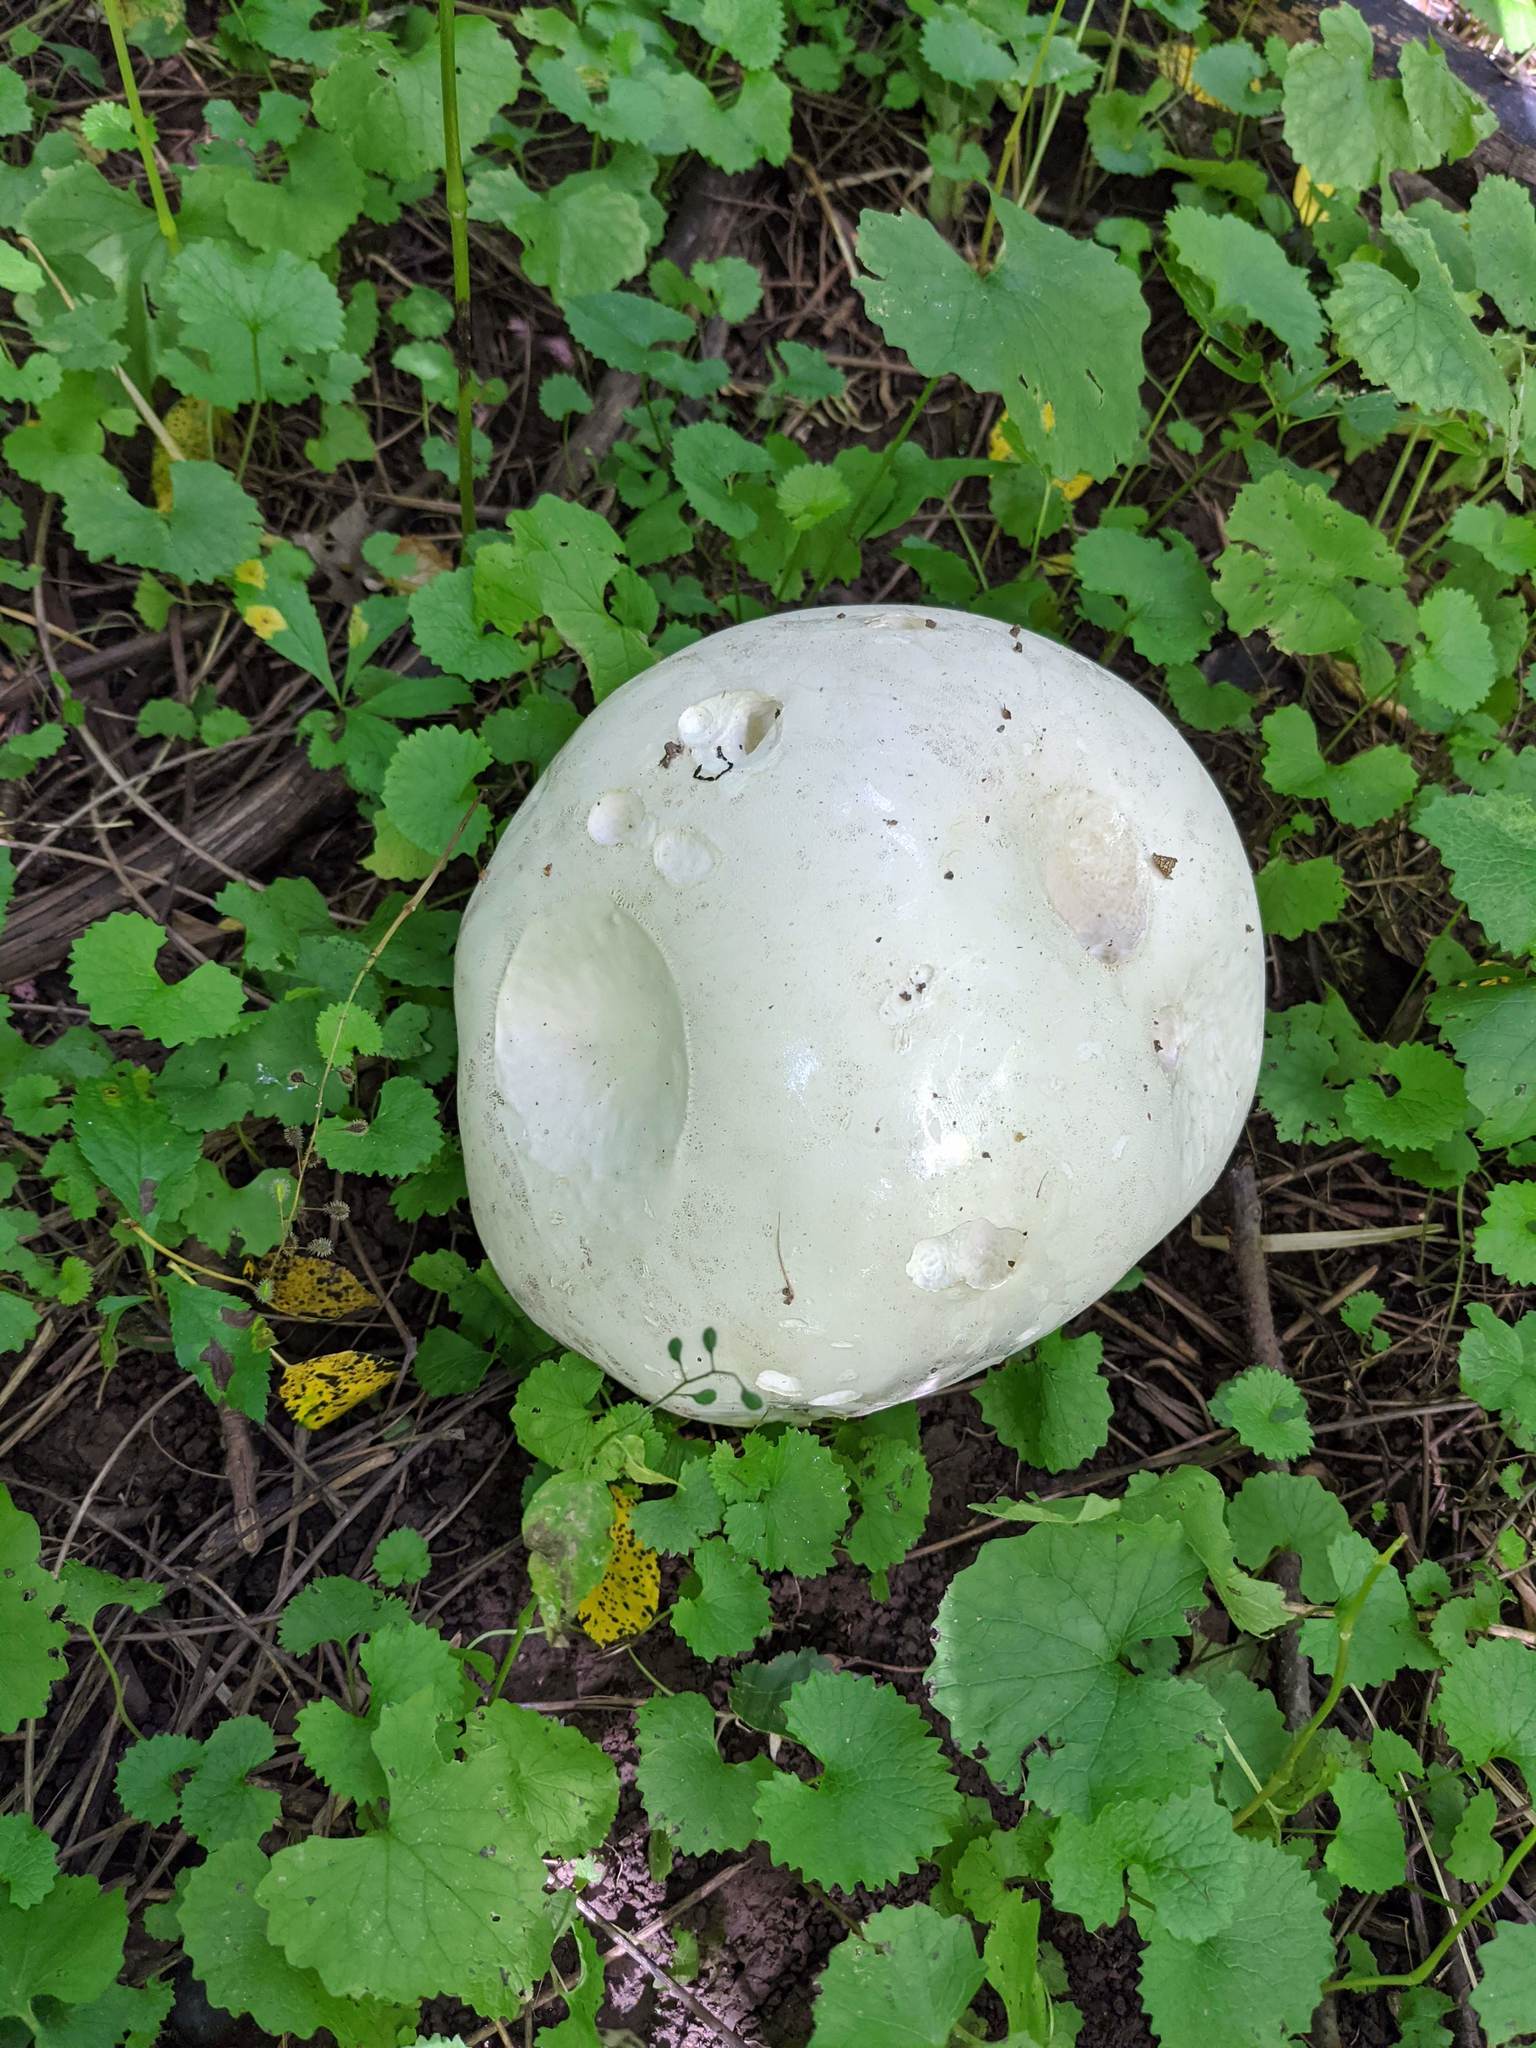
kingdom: Fungi
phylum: Basidiomycota
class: Agaricomycetes
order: Agaricales
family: Lycoperdaceae
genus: Calvatia
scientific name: Calvatia gigantea
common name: Giant puffball
